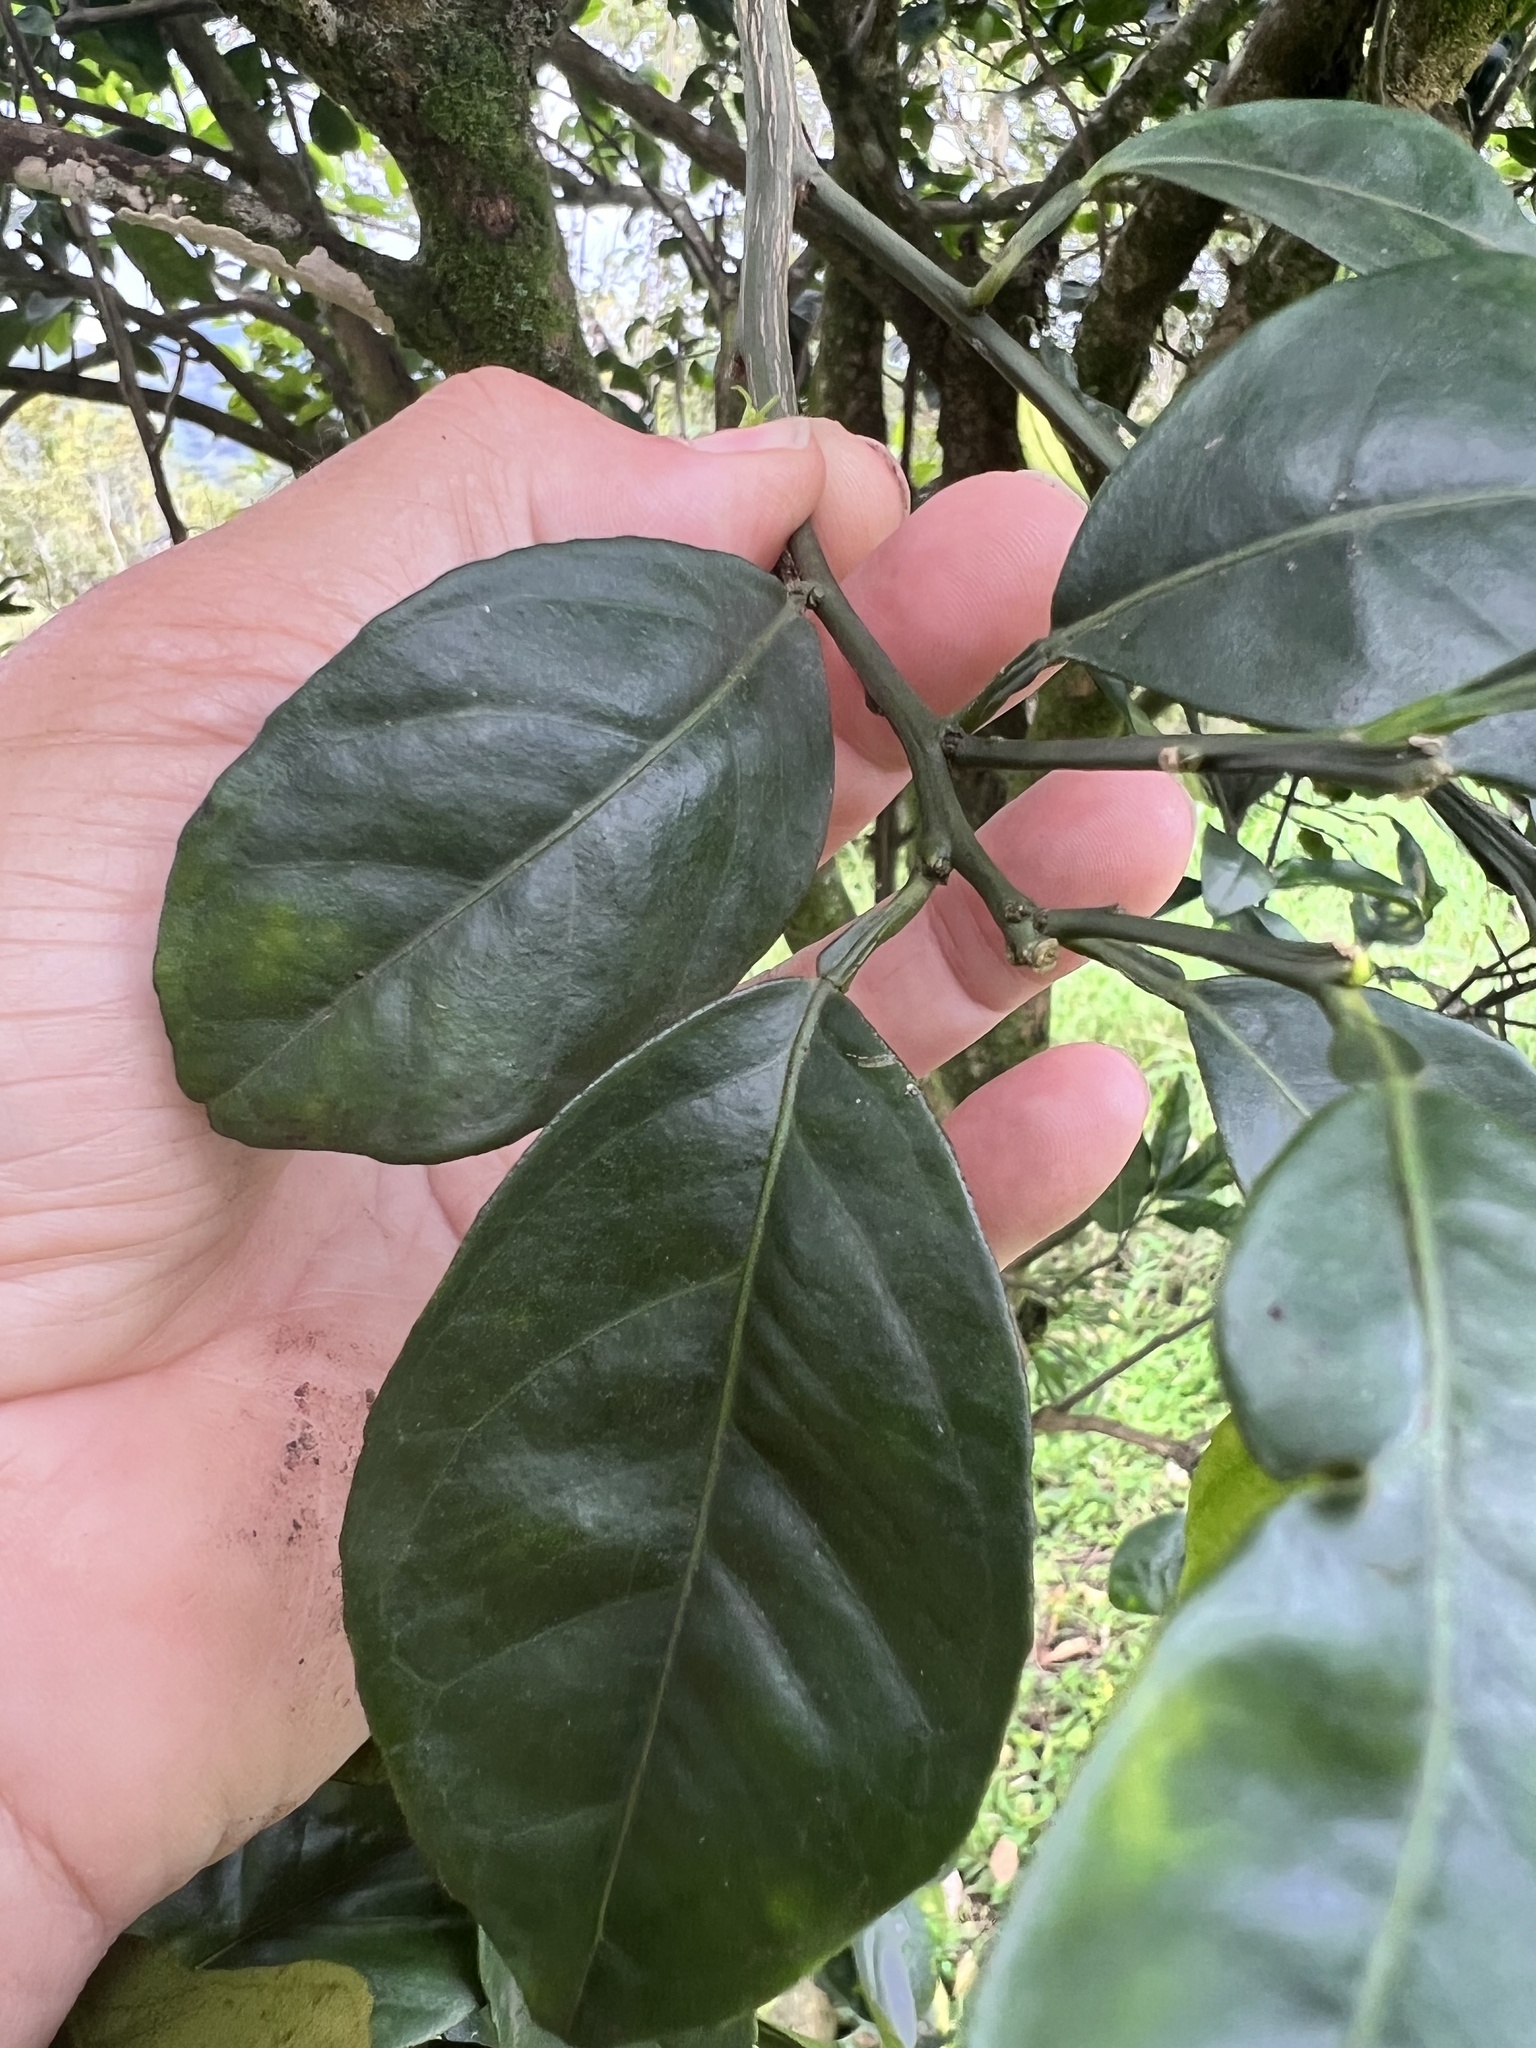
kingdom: Animalia
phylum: Arthropoda
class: Insecta
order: Lepidoptera
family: Gracillariidae
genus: Phyllocnistis
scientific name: Phyllocnistis citrella
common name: Citrus leafminer
